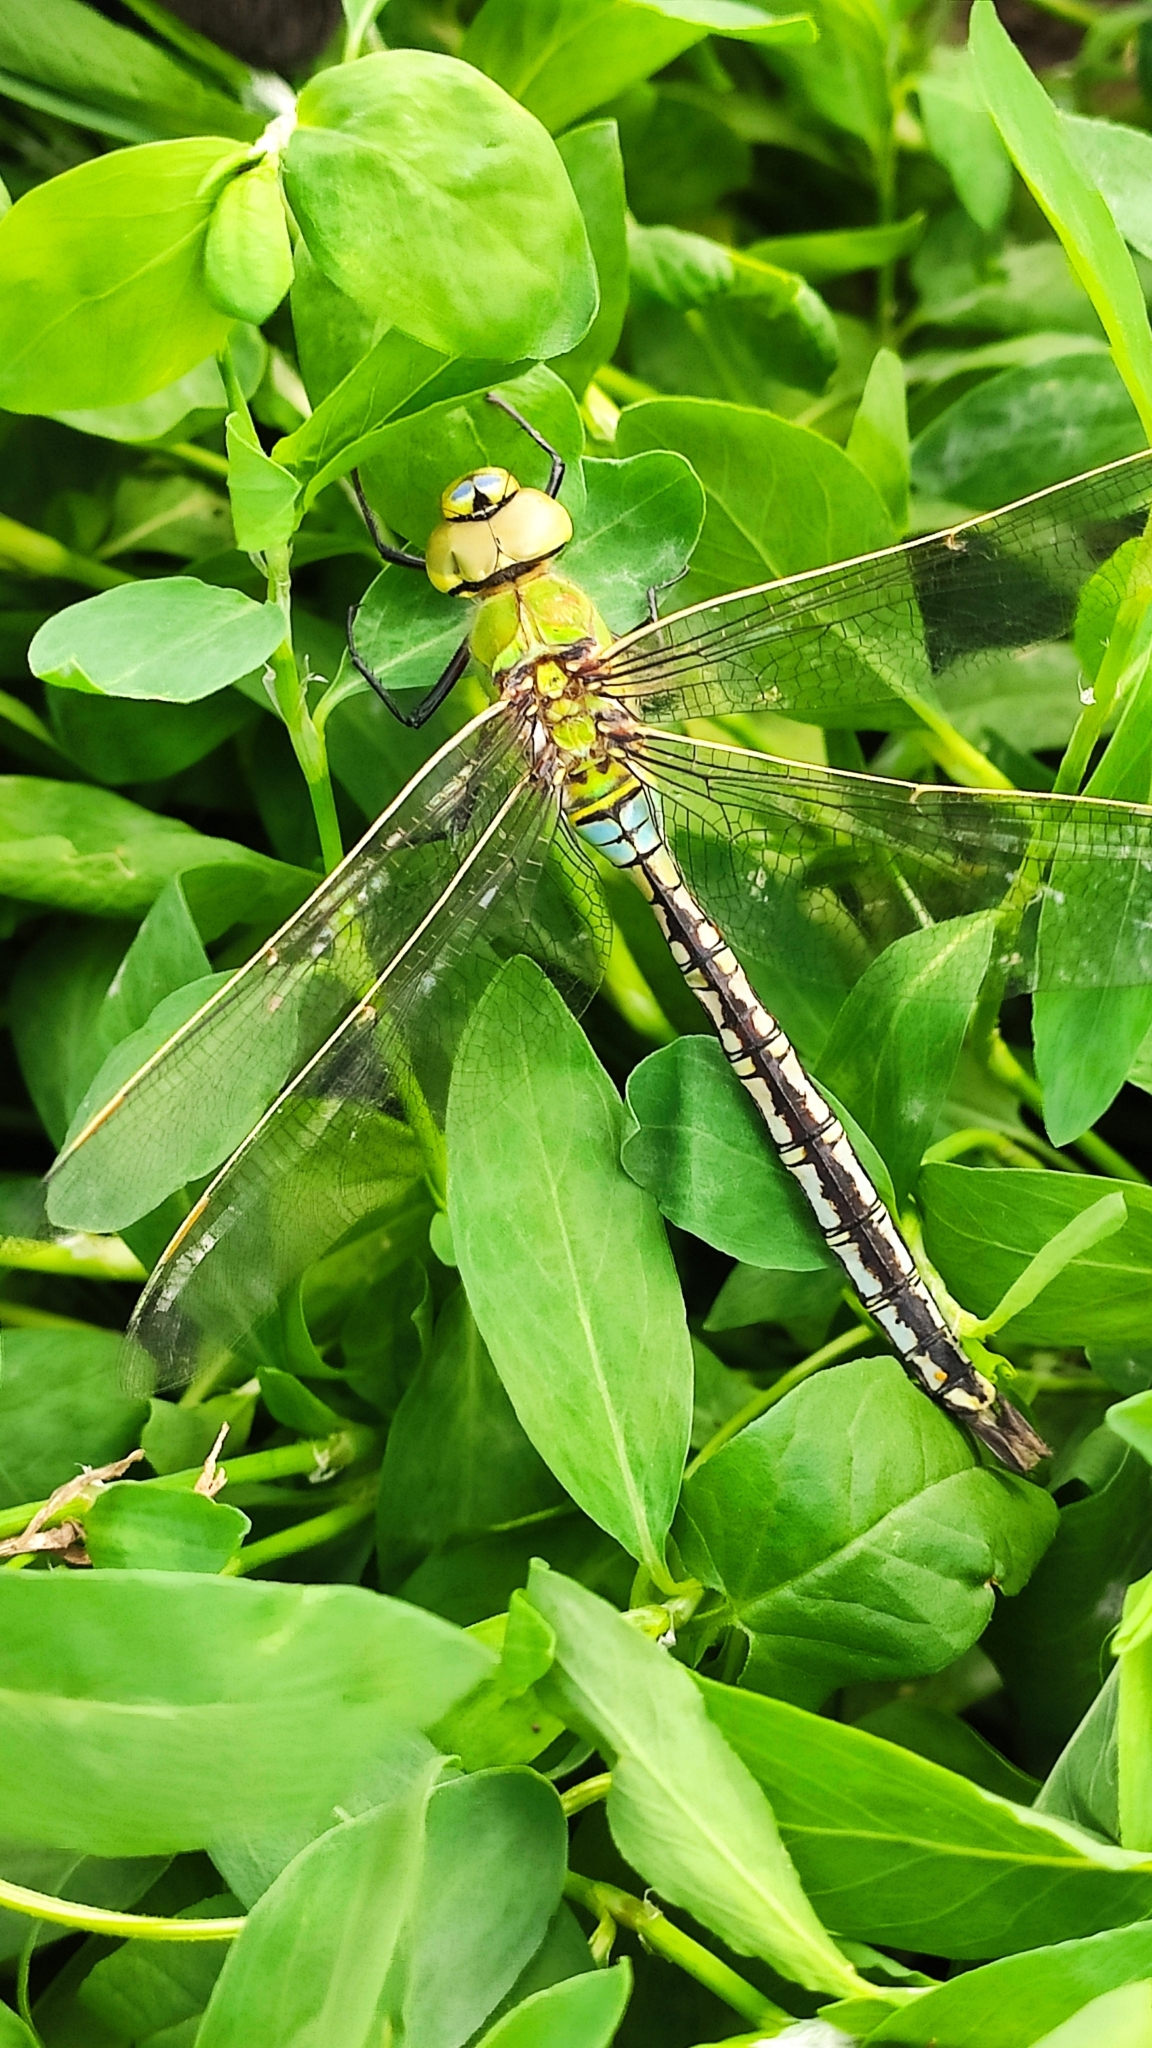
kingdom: Animalia
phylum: Arthropoda
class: Insecta
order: Odonata
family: Aeshnidae
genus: Anax
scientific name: Anax imperator
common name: Emperor dragonfly
